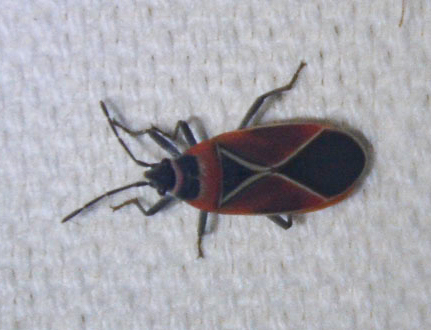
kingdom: Animalia
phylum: Arthropoda
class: Insecta
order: Hemiptera
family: Lygaeidae
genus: Neacoryphus
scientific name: Neacoryphus bicrucis
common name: Lygaeid bug
